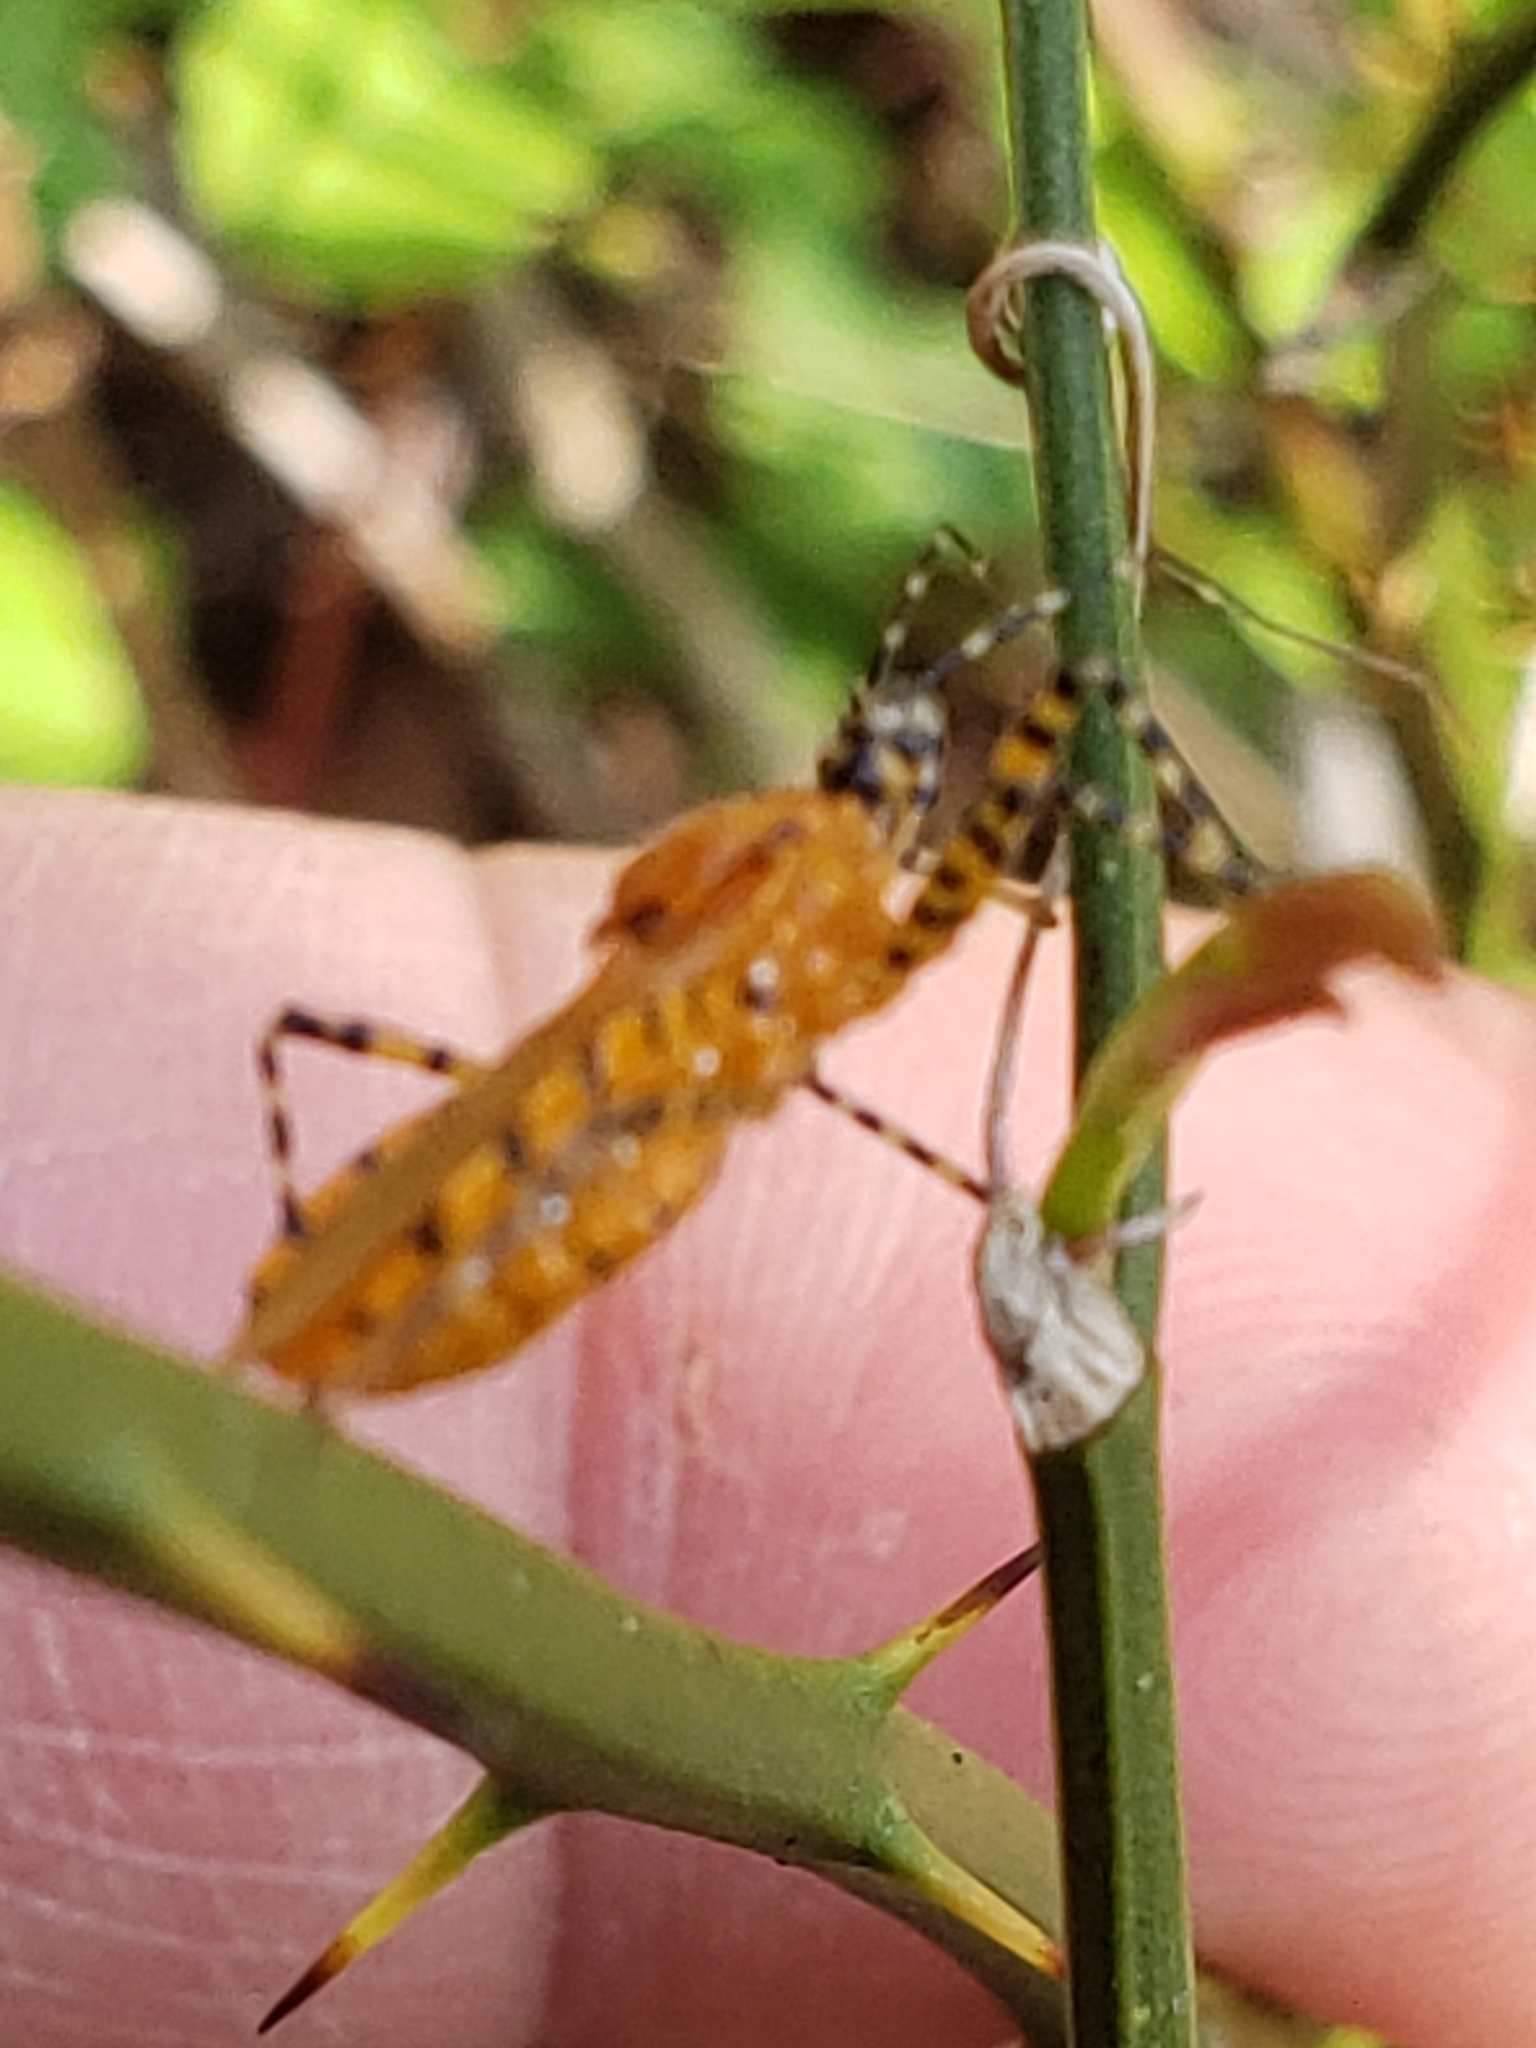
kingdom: Animalia
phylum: Arthropoda
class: Insecta
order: Hemiptera
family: Reduviidae
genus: Pselliopus
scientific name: Pselliopus barberi
